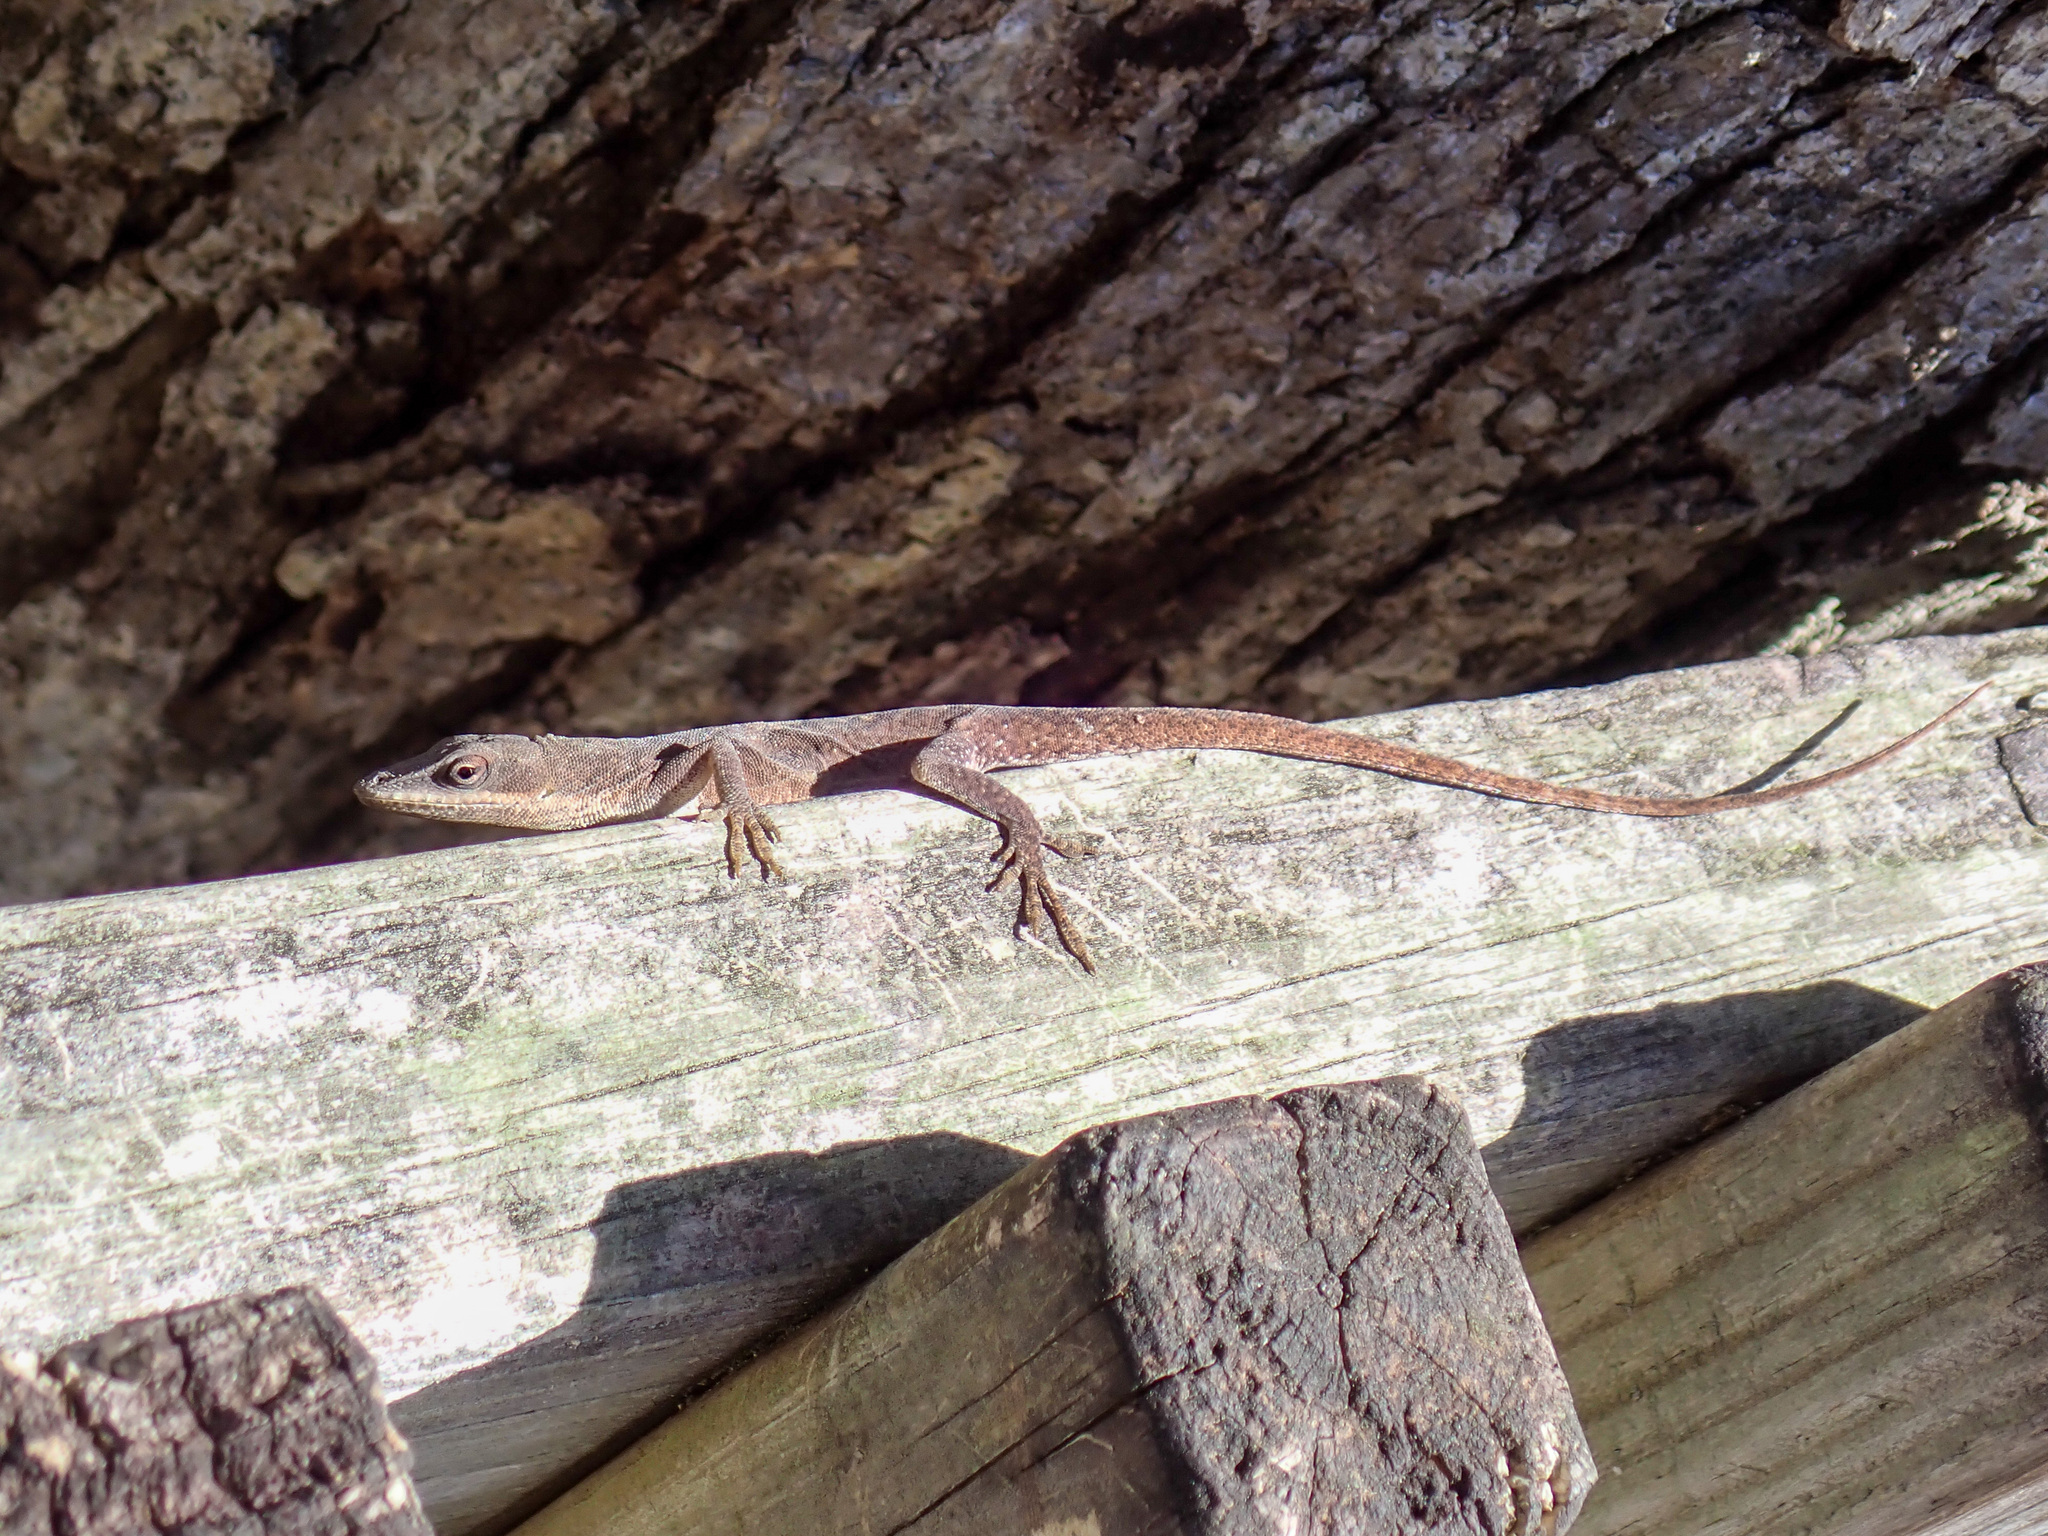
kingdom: Animalia
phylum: Chordata
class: Squamata
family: Dactyloidae
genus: Anolis
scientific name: Anolis carolinensis
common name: Green anole
